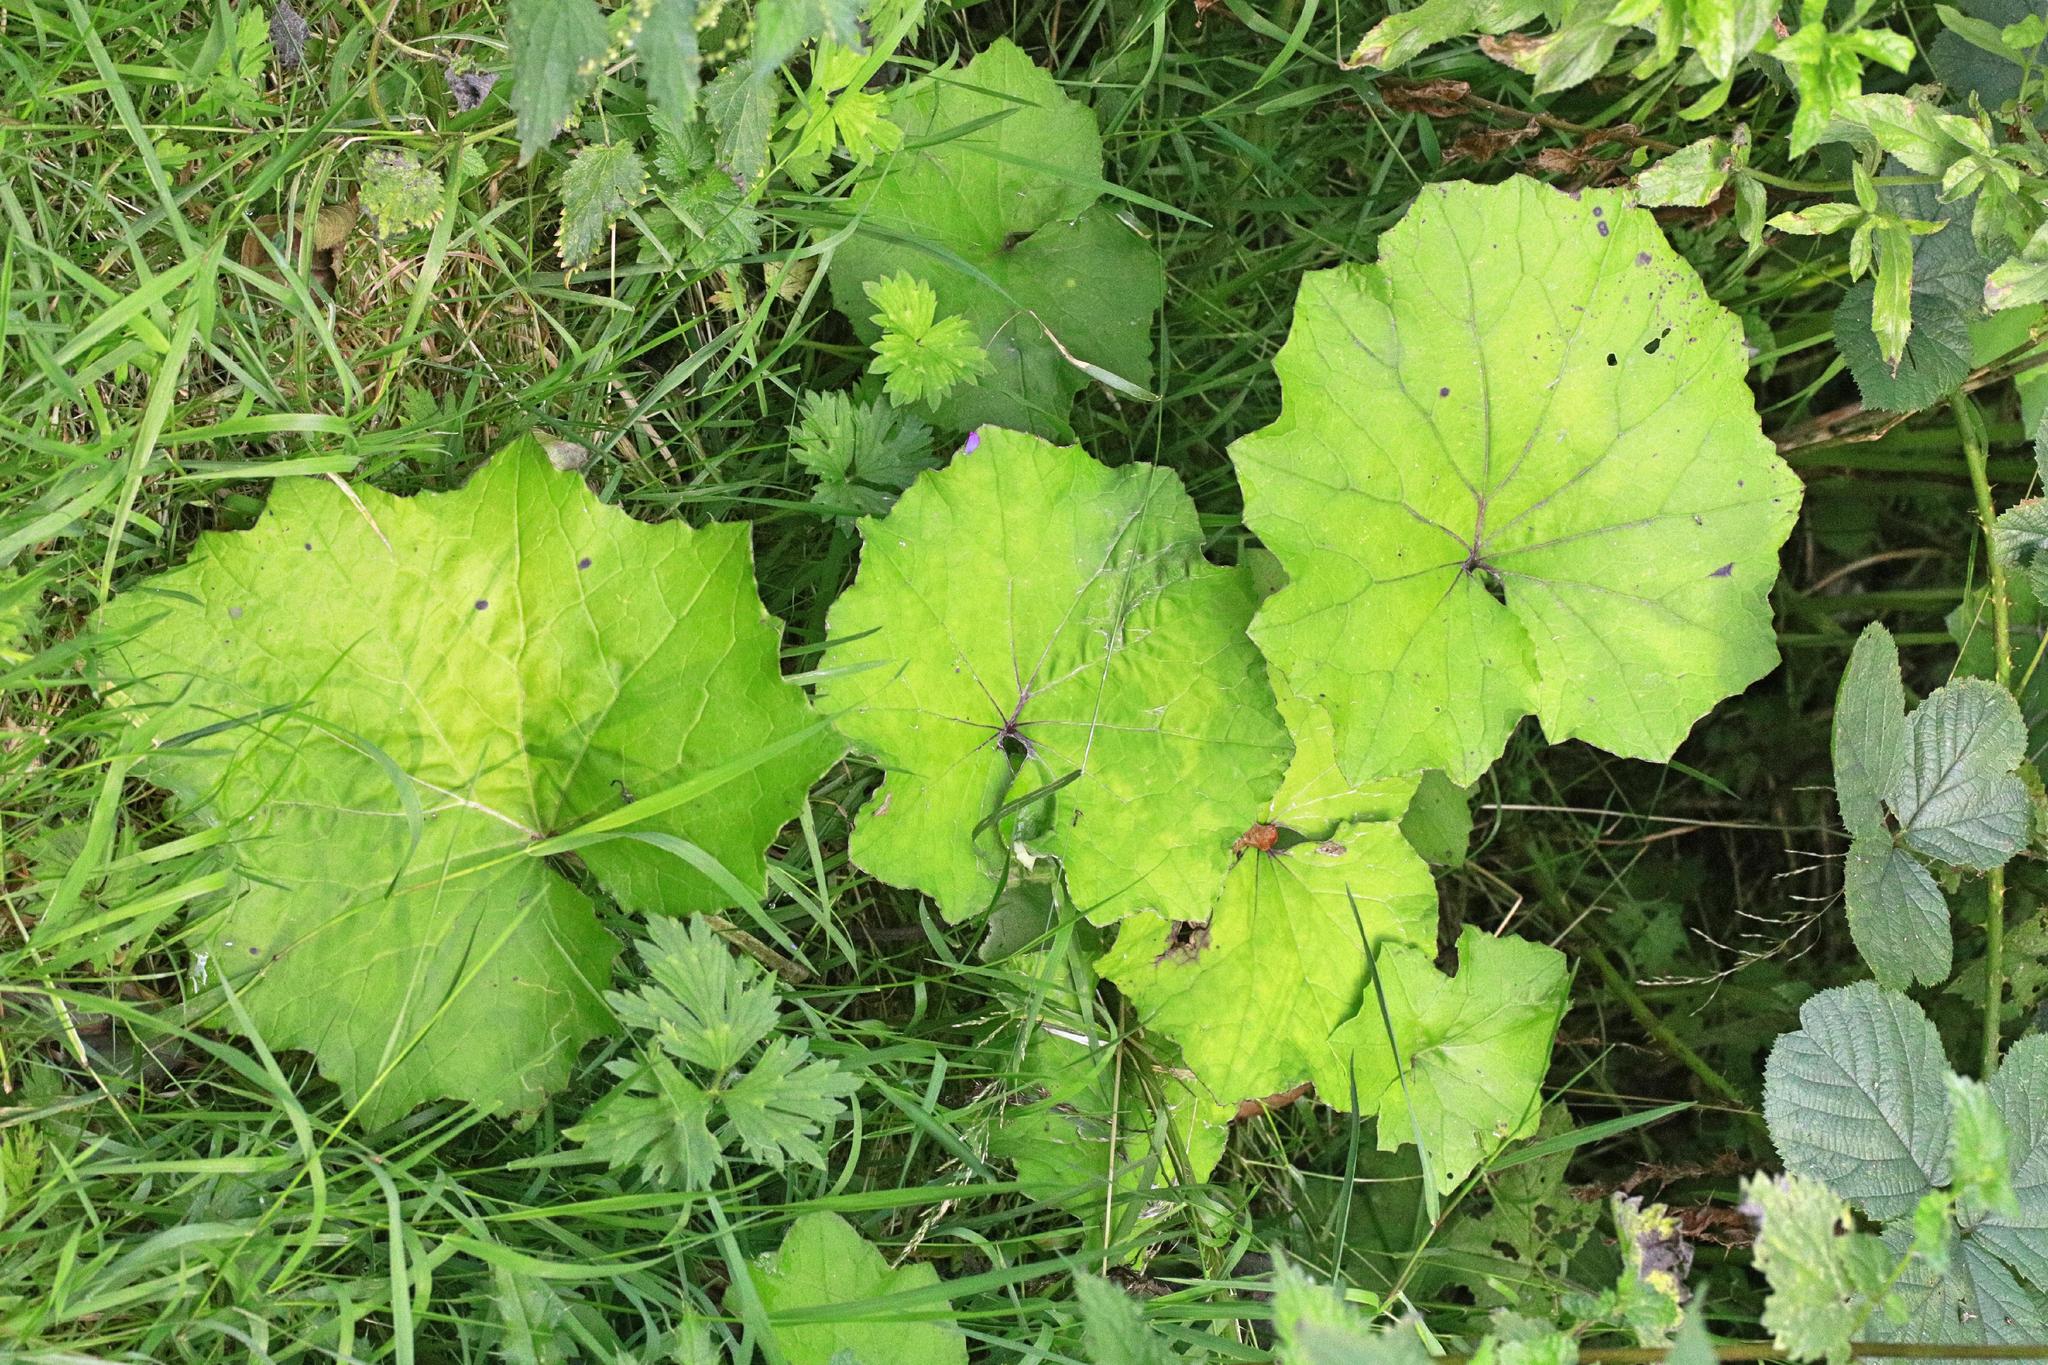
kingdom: Plantae
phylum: Tracheophyta
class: Magnoliopsida
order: Asterales
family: Asteraceae
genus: Tussilago
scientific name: Tussilago farfara
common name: Coltsfoot
